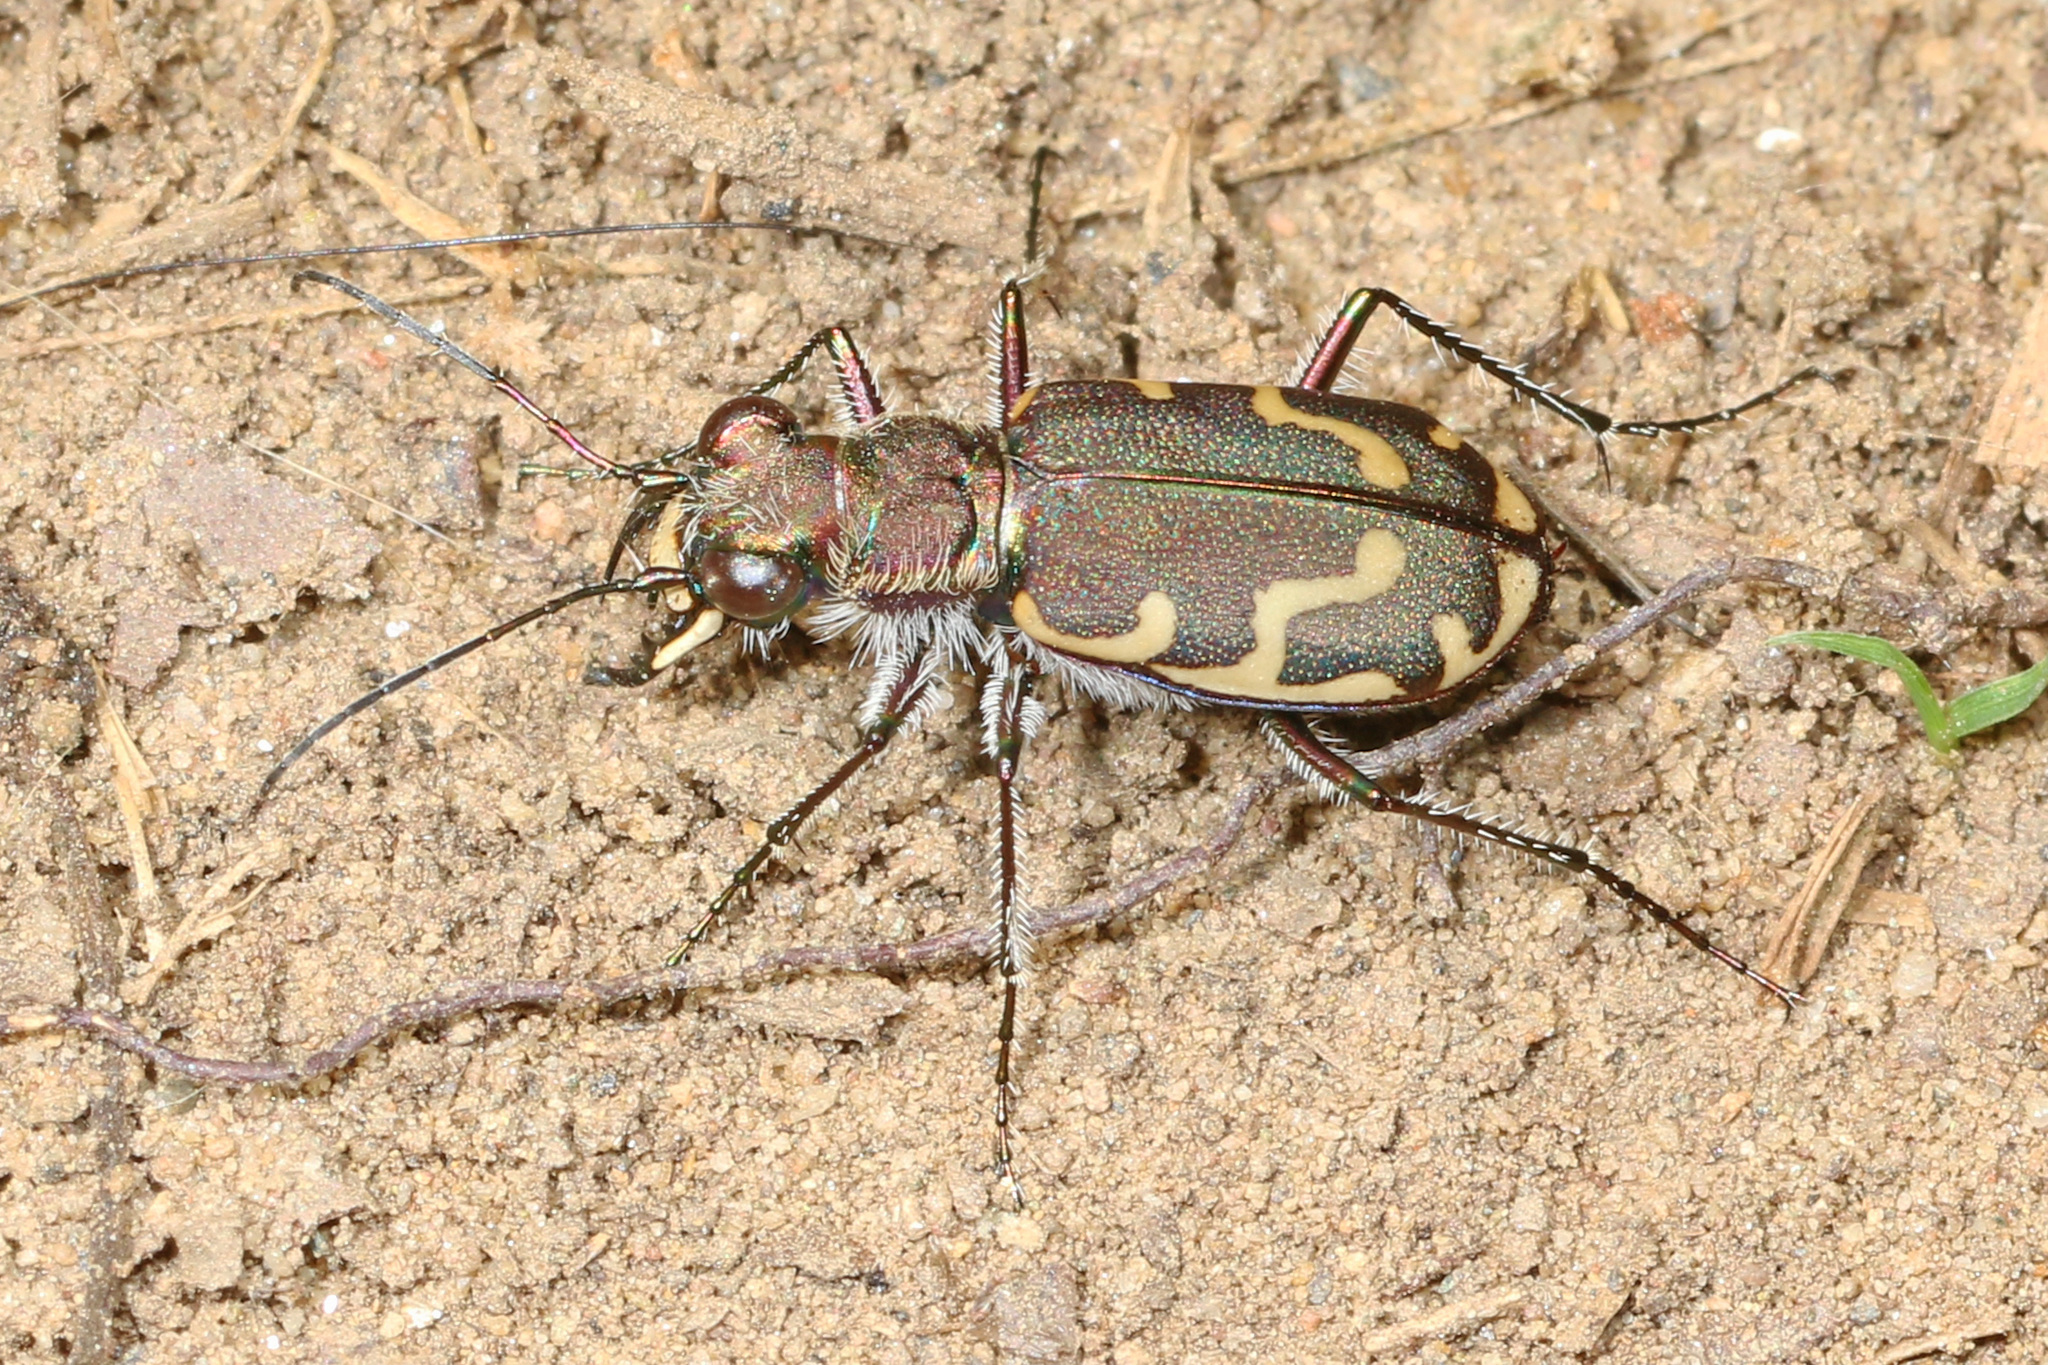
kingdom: Animalia
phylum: Arthropoda
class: Insecta
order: Coleoptera
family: Carabidae
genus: Cicindela
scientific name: Cicindela repanda
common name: Bronzed tiger beetle
